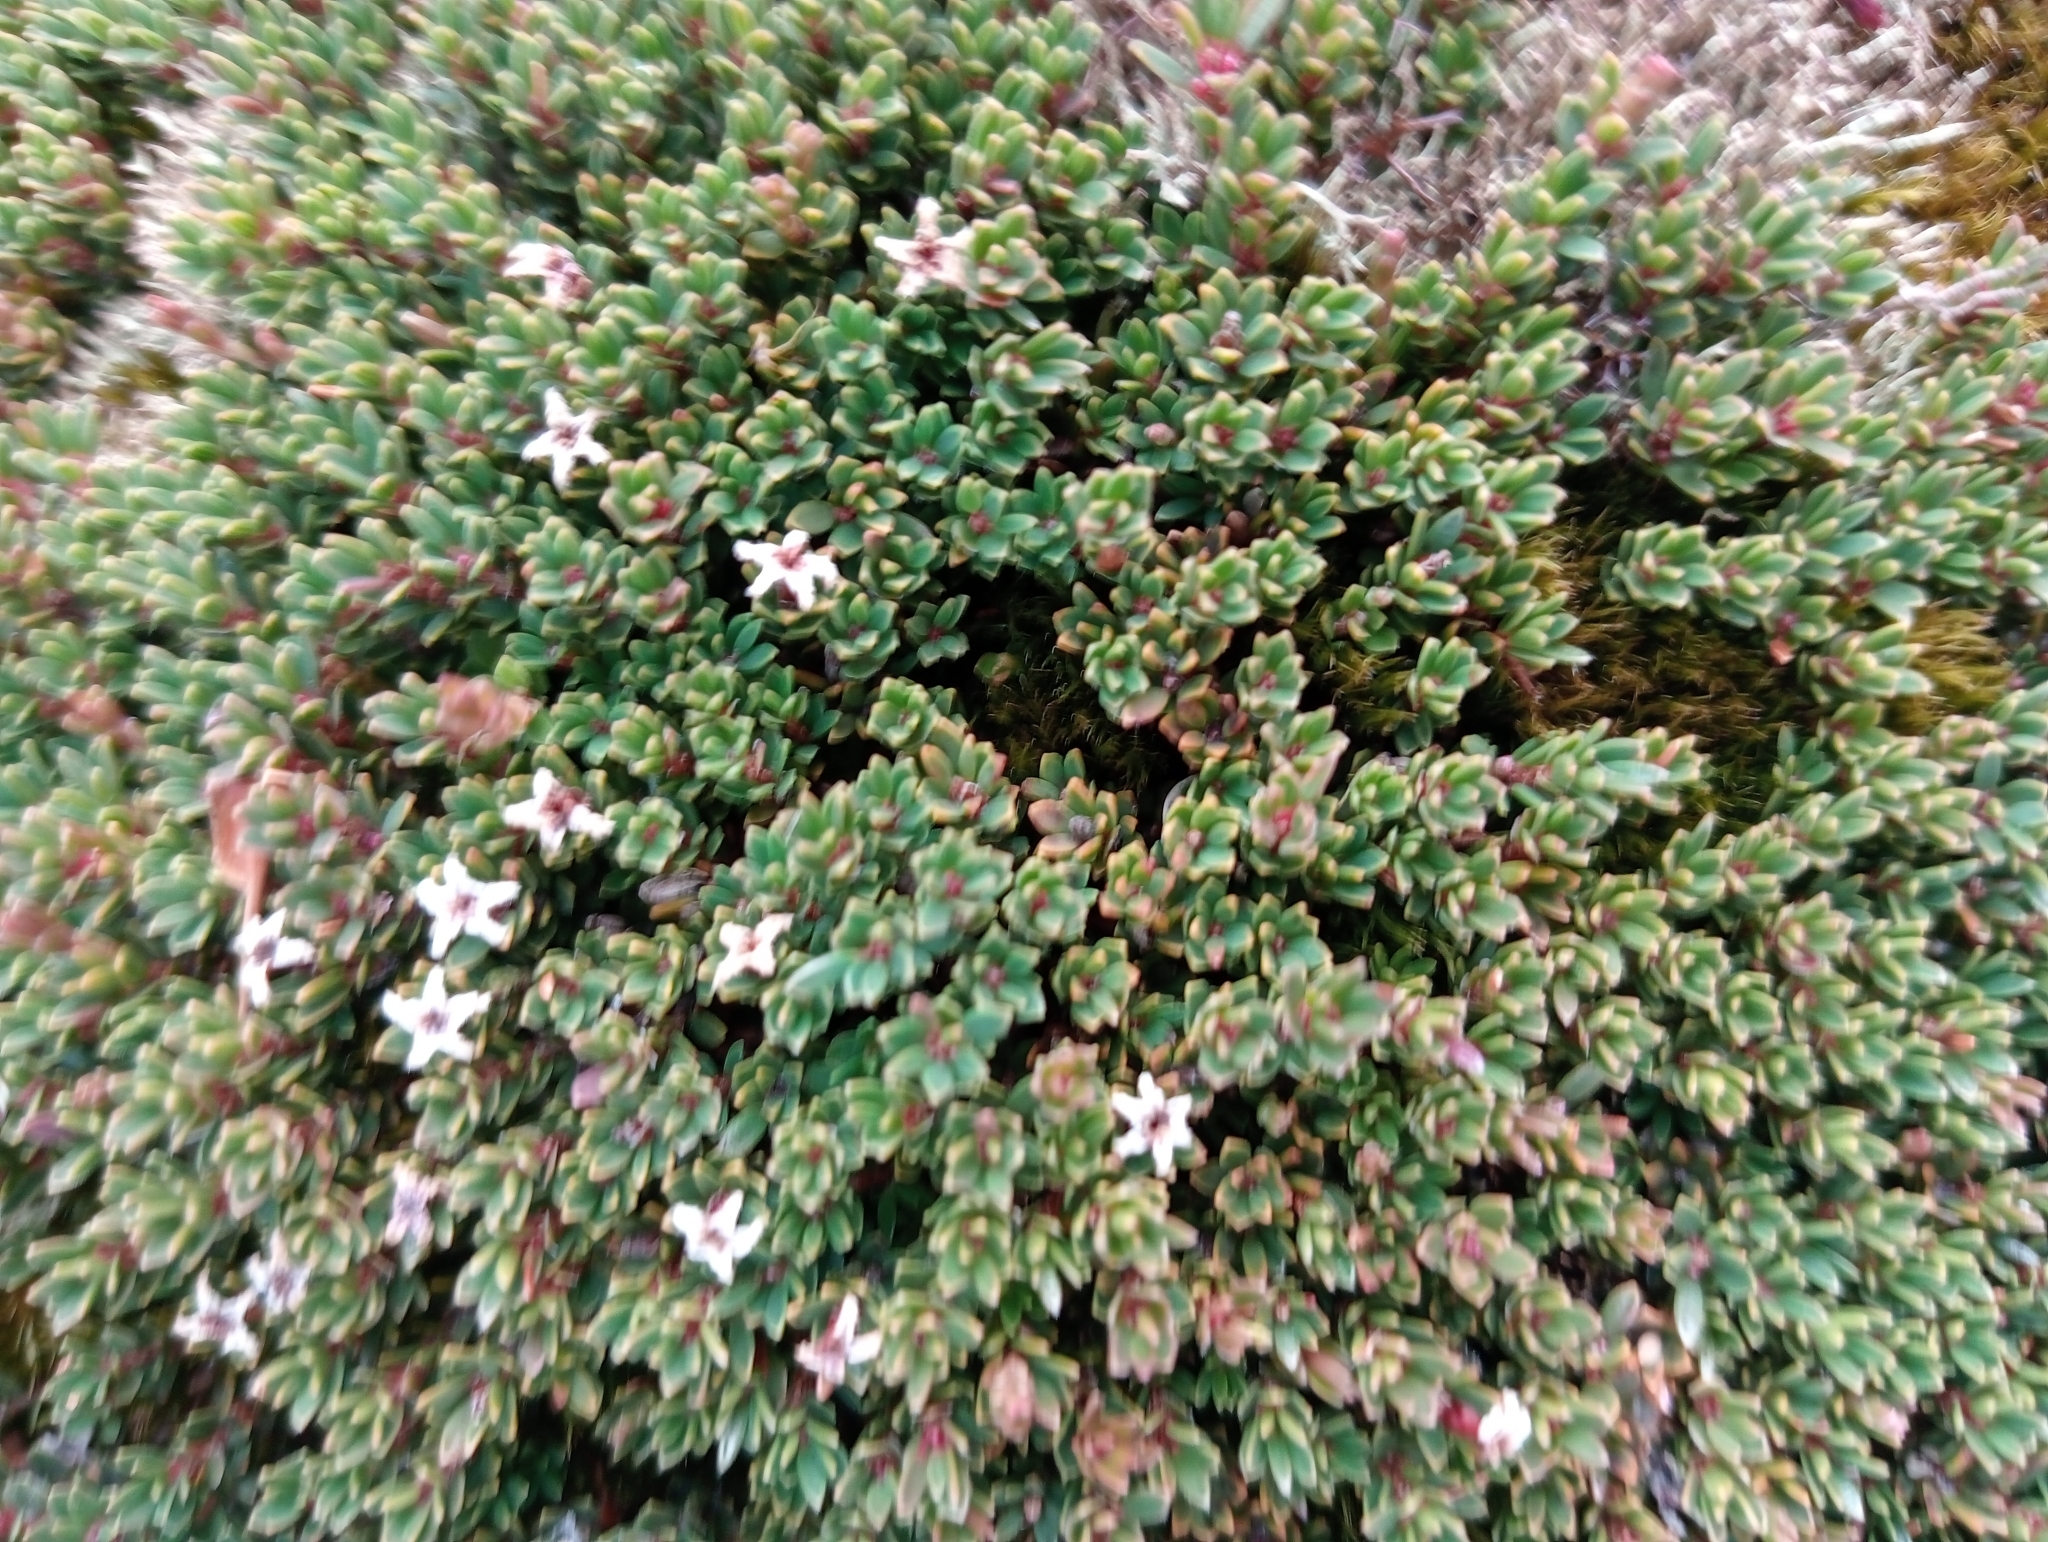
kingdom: Plantae
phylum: Tracheophyta
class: Magnoliopsida
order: Ericales
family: Ericaceae
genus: Pentachondra
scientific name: Pentachondra pumila
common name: Carpet-heath
